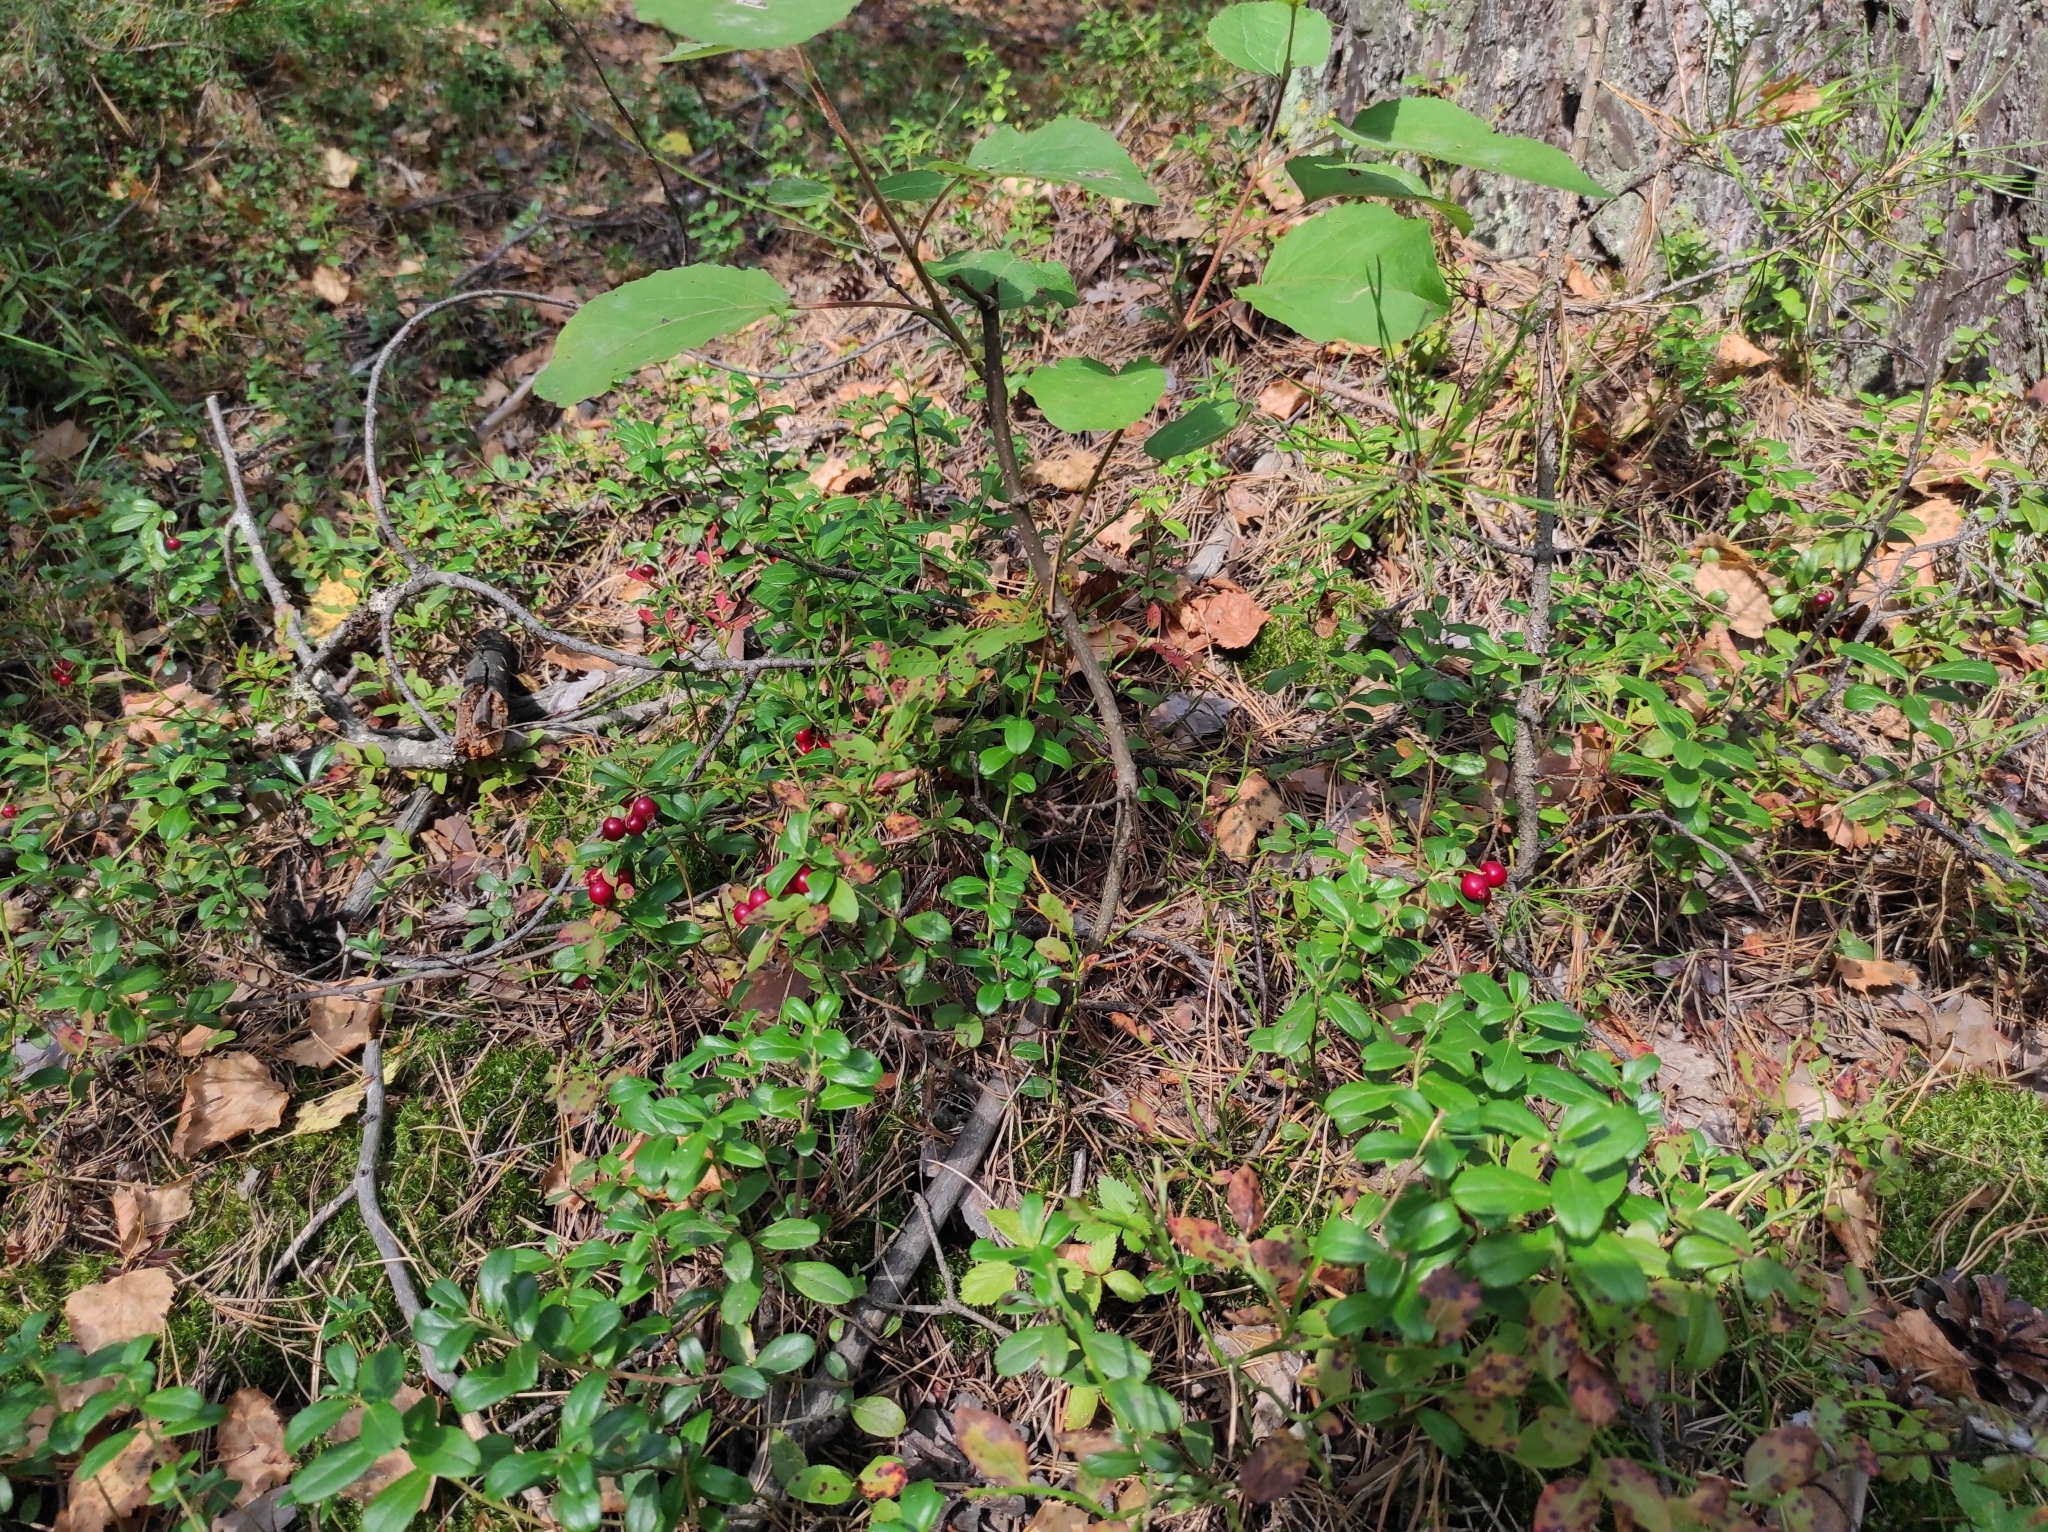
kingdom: Plantae
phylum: Tracheophyta
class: Magnoliopsida
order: Ericales
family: Ericaceae
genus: Vaccinium
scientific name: Vaccinium vitis-idaea
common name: Cowberry
